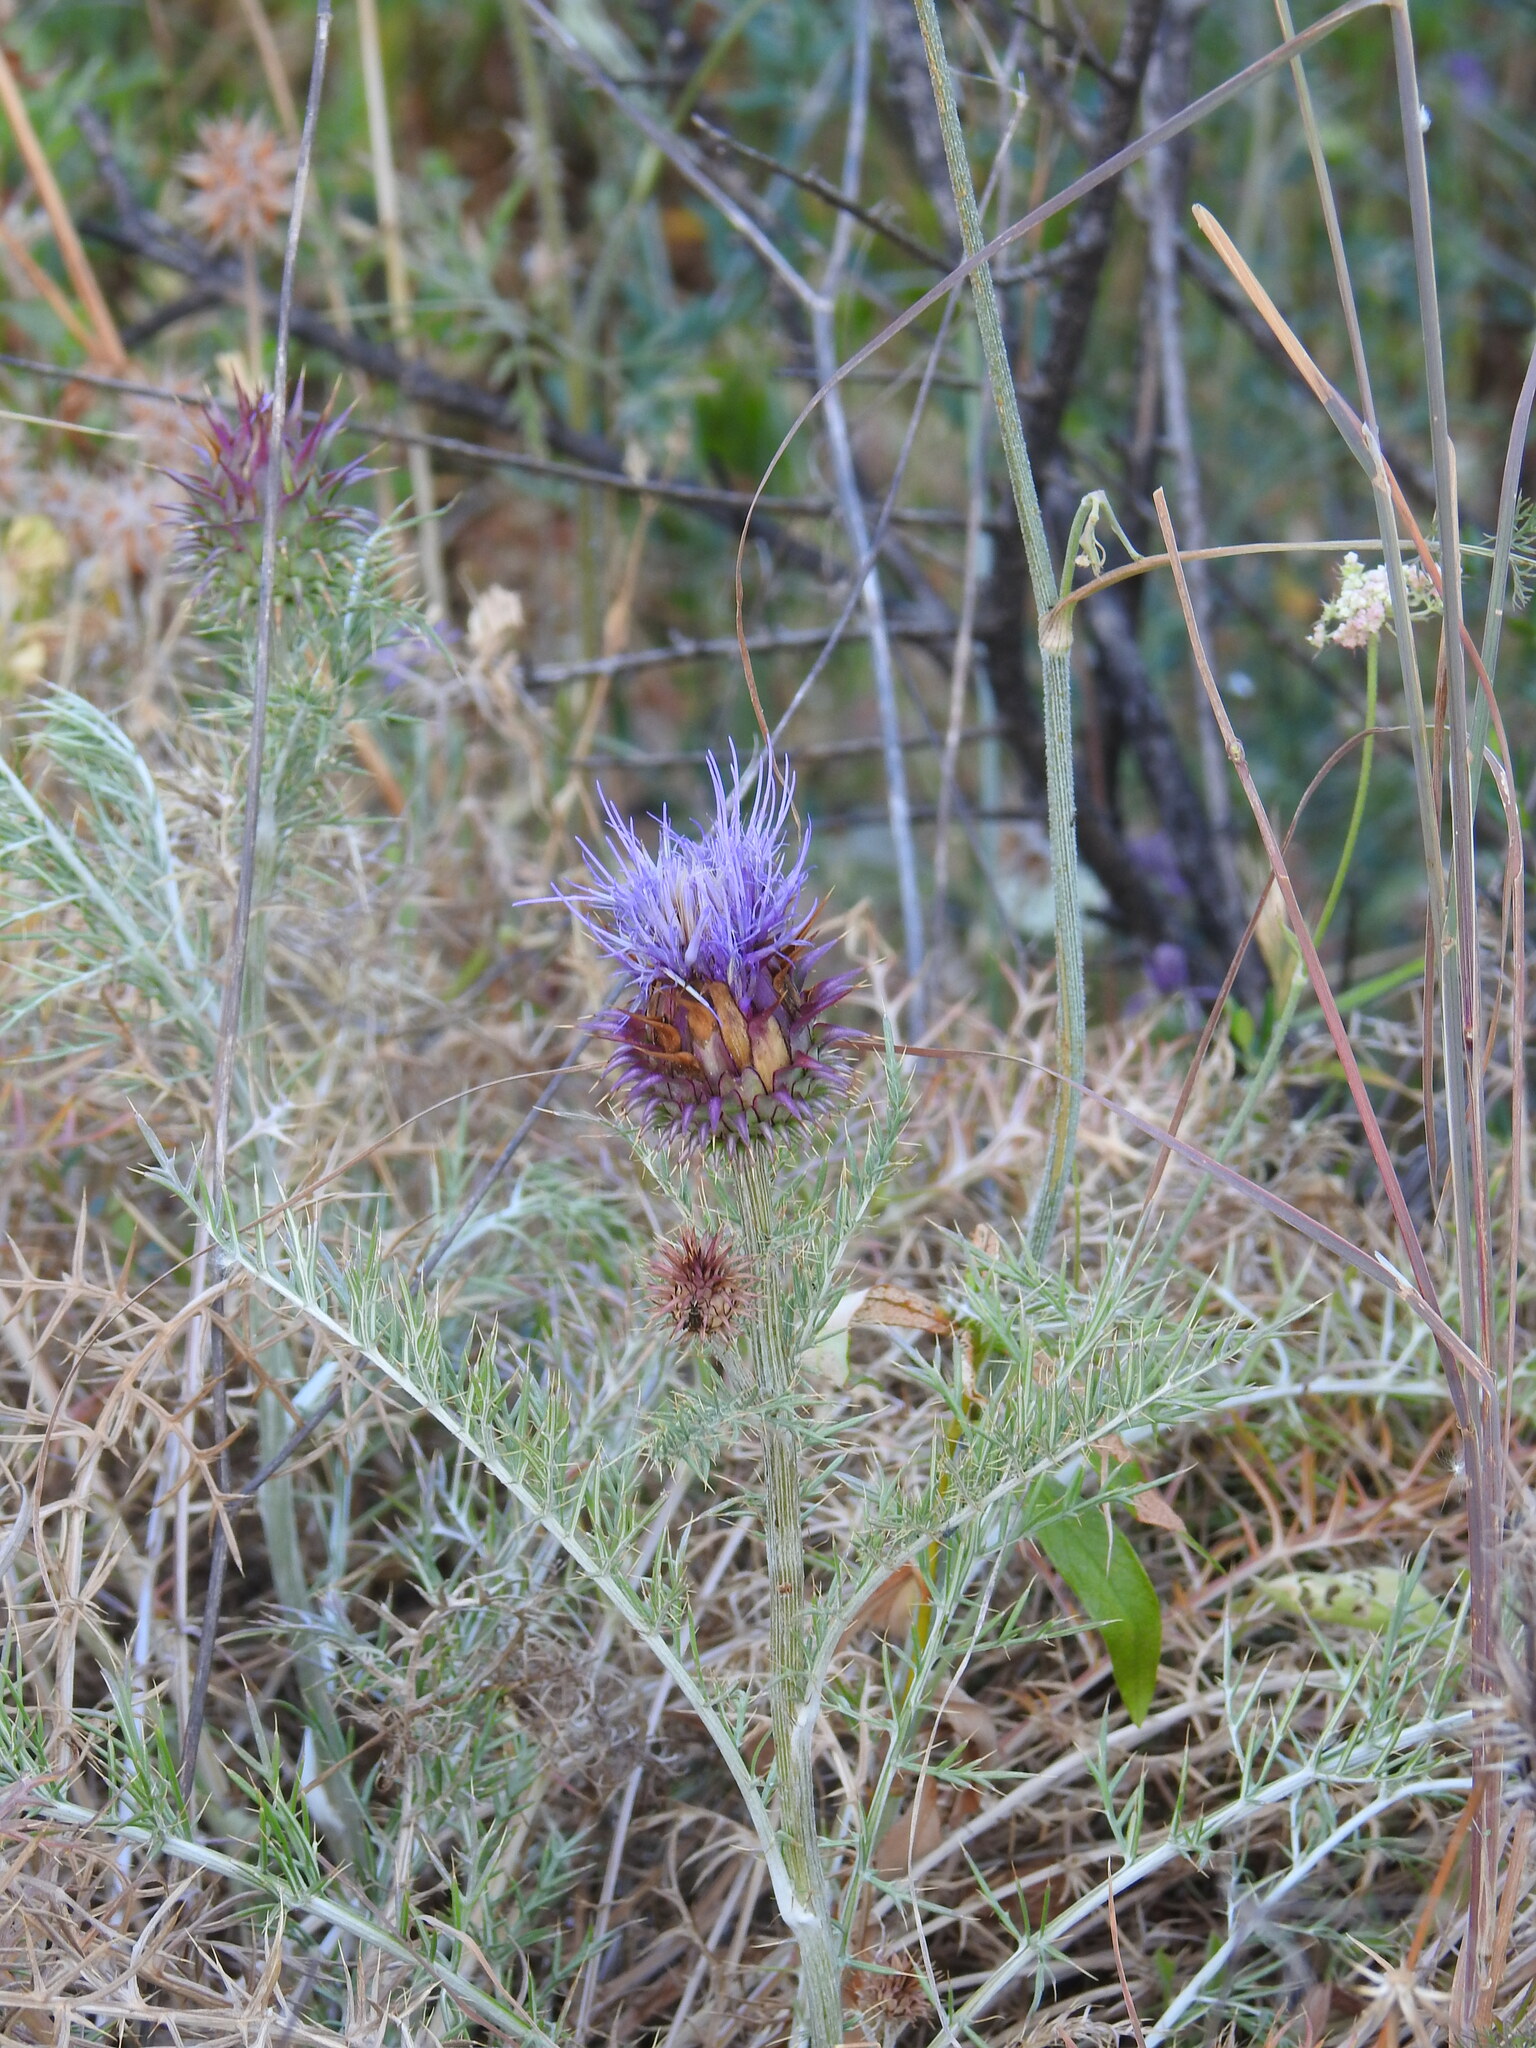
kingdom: Plantae
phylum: Tracheophyta
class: Magnoliopsida
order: Asterales
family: Asteraceae
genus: Cynara
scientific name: Cynara humilis
